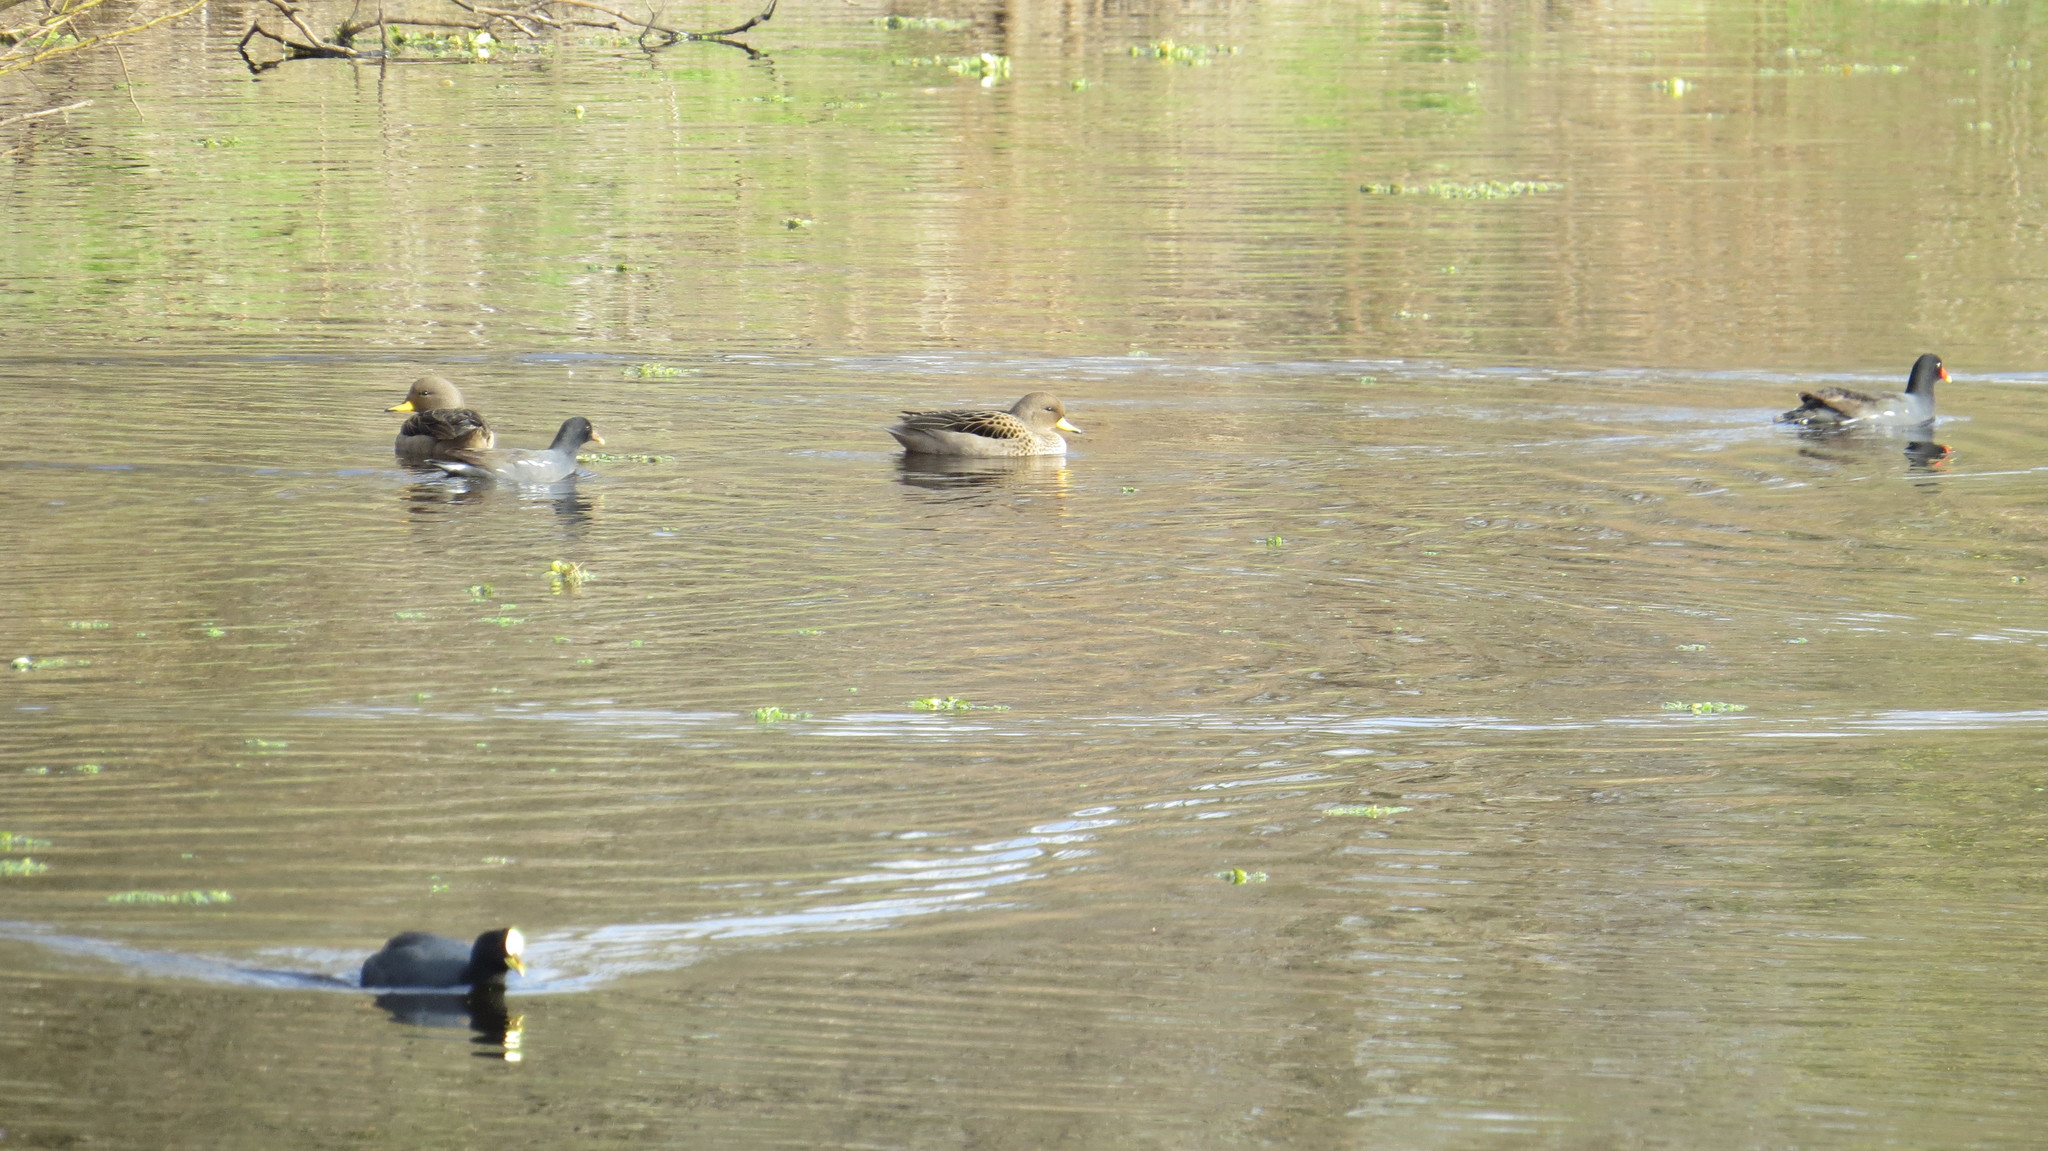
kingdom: Animalia
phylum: Chordata
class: Aves
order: Anseriformes
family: Anatidae
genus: Anas
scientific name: Anas flavirostris
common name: Yellow-billed teal
